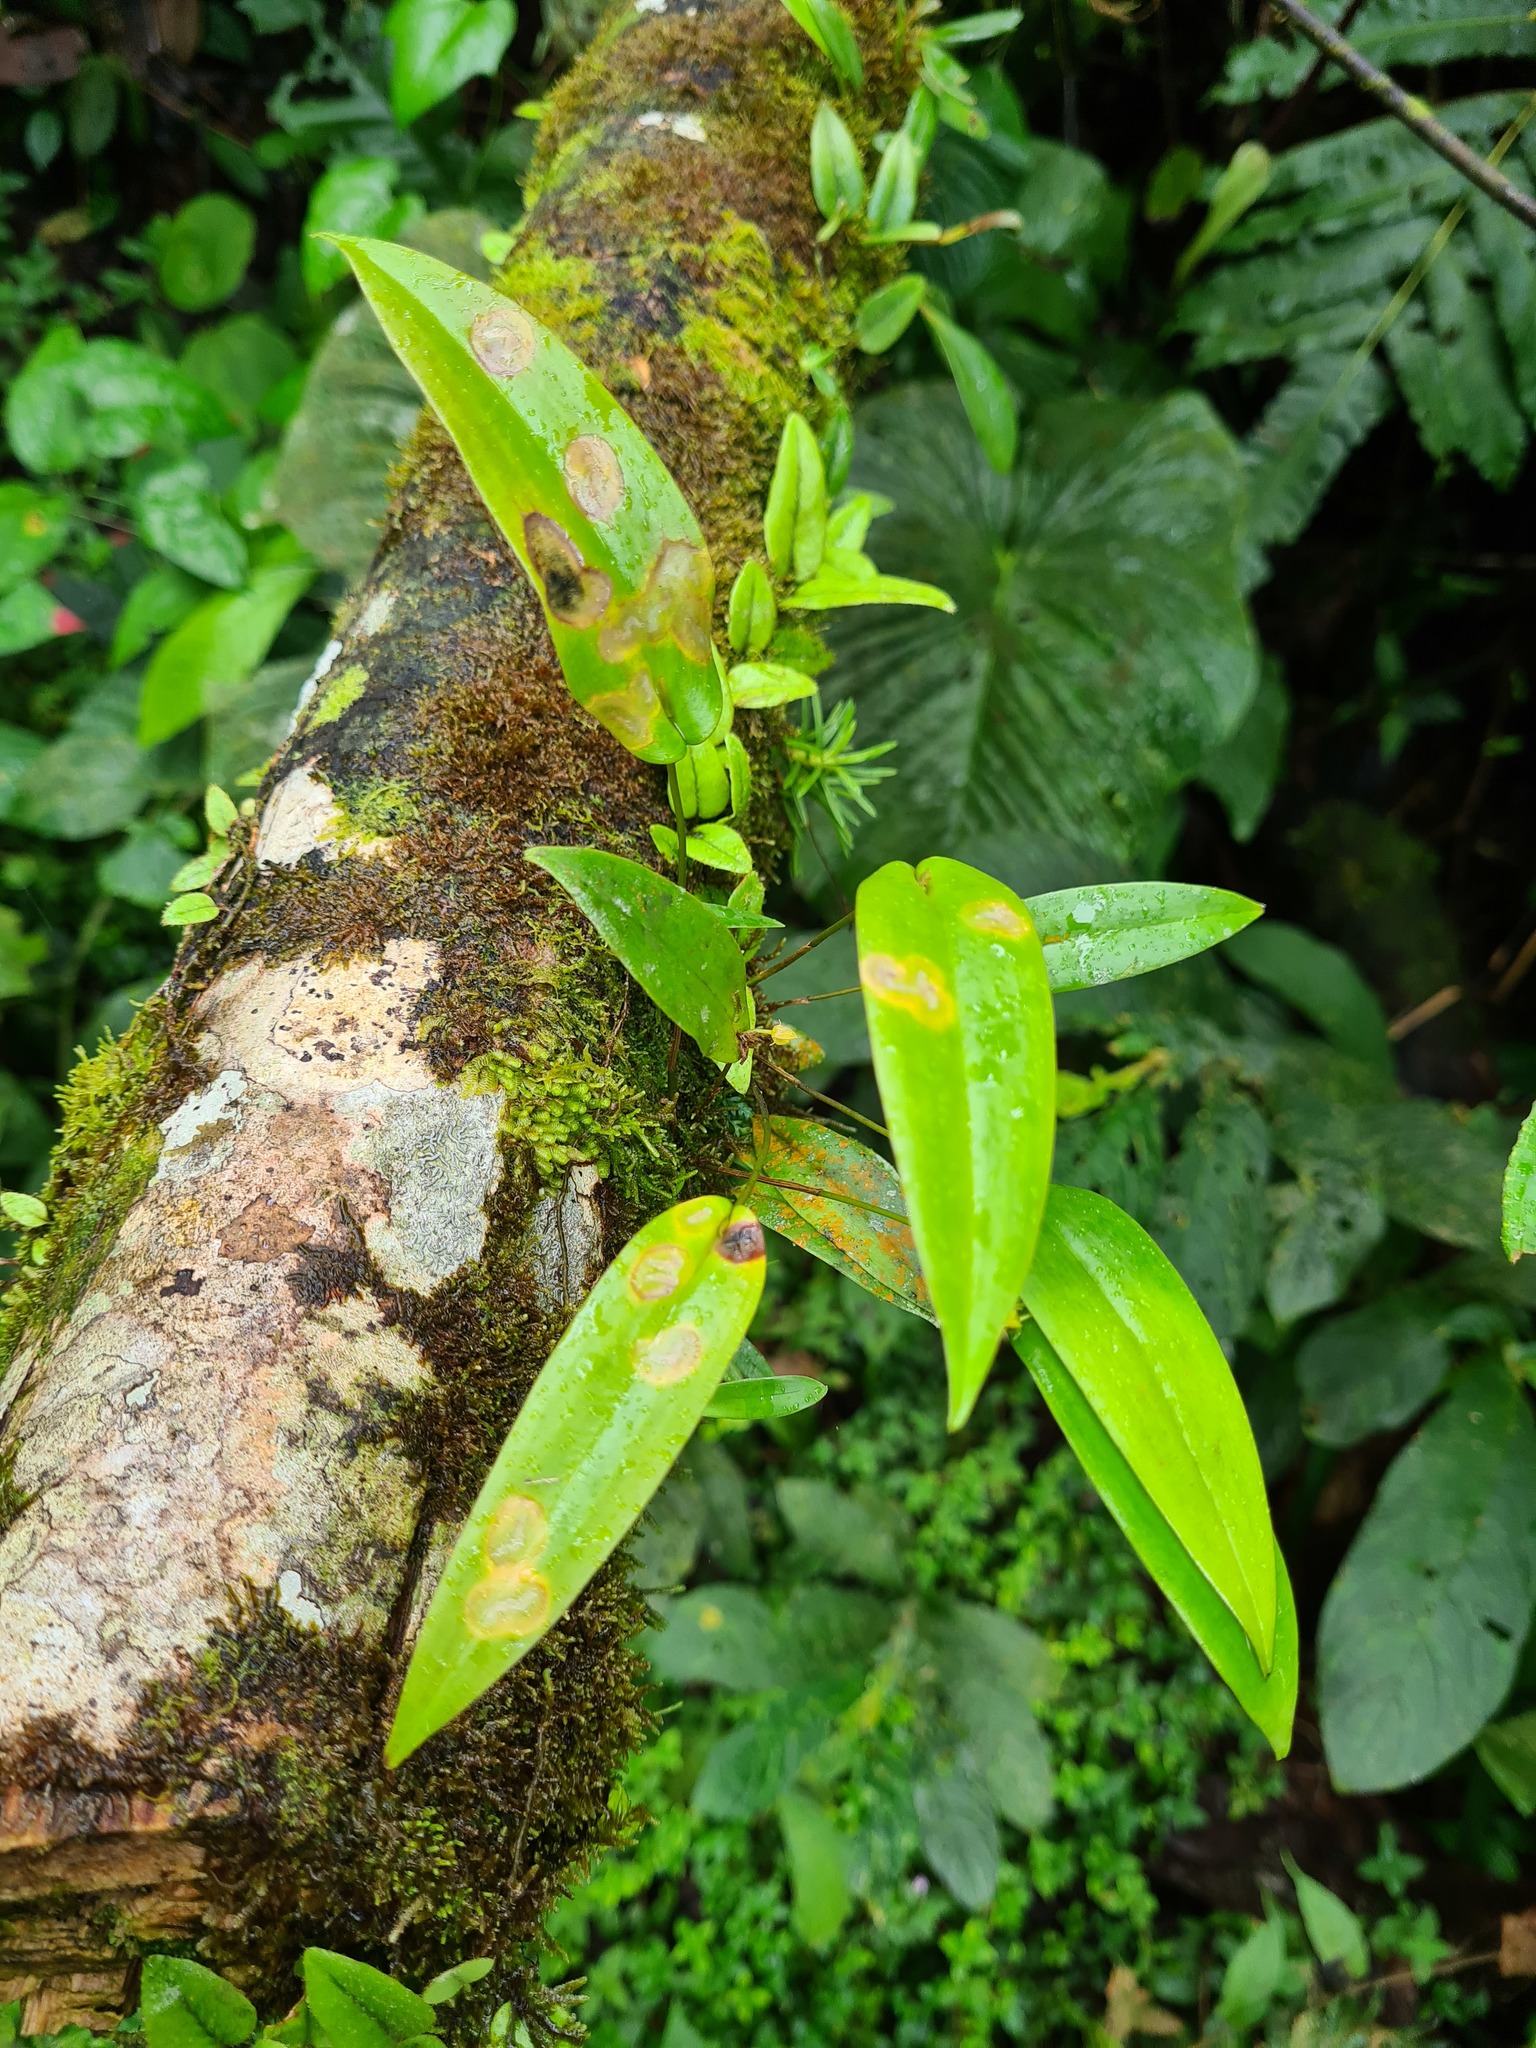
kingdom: Plantae
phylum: Tracheophyta
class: Liliopsida
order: Asparagales
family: Orchidaceae
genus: Pleurothallis
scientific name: Pleurothallis dibolia
